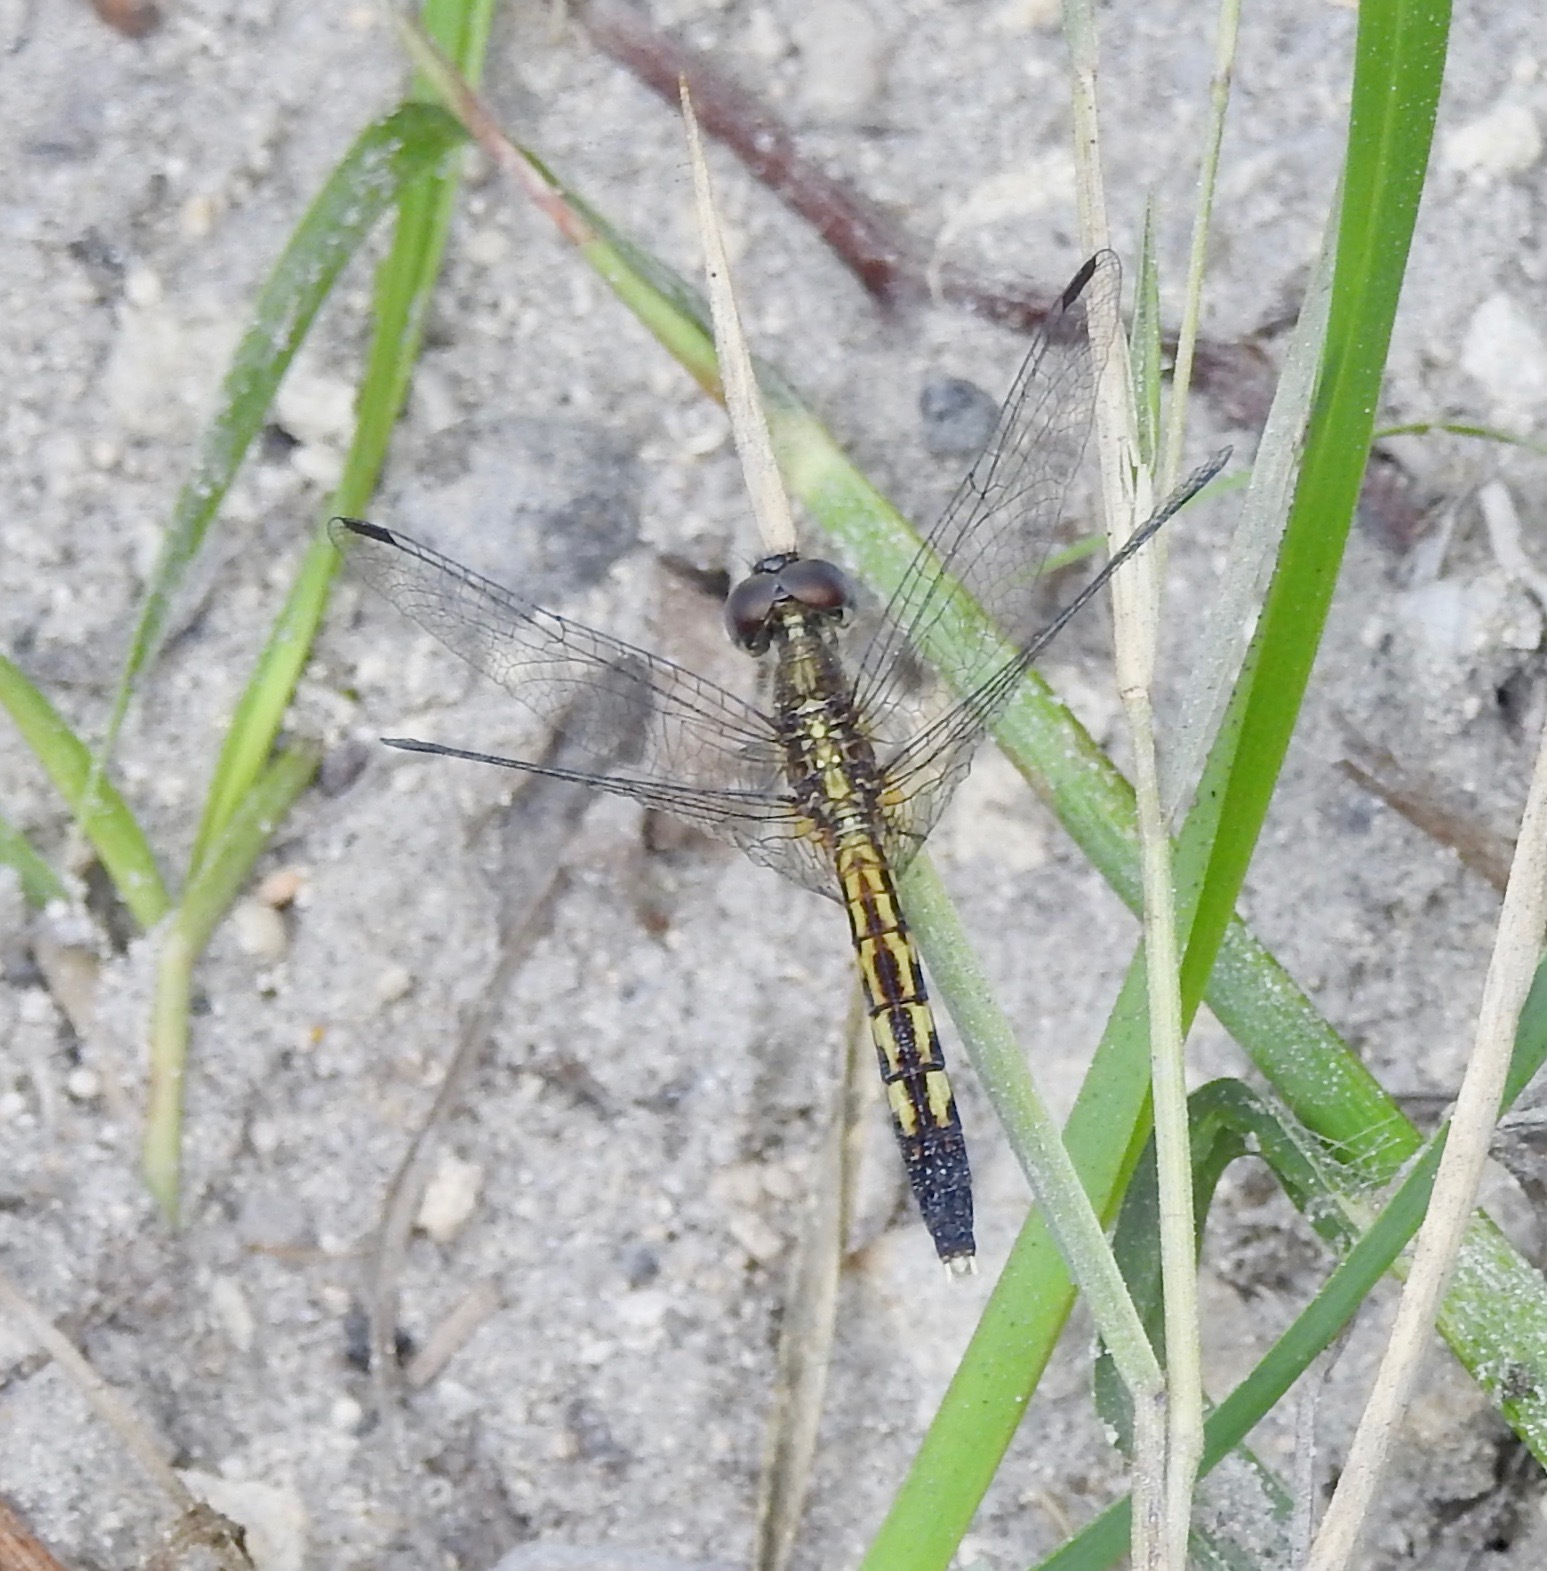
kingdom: Animalia
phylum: Arthropoda
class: Insecta
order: Odonata
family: Libellulidae
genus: Erythrodiplax
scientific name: Erythrodiplax minuscula
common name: Little blue dragonlet
